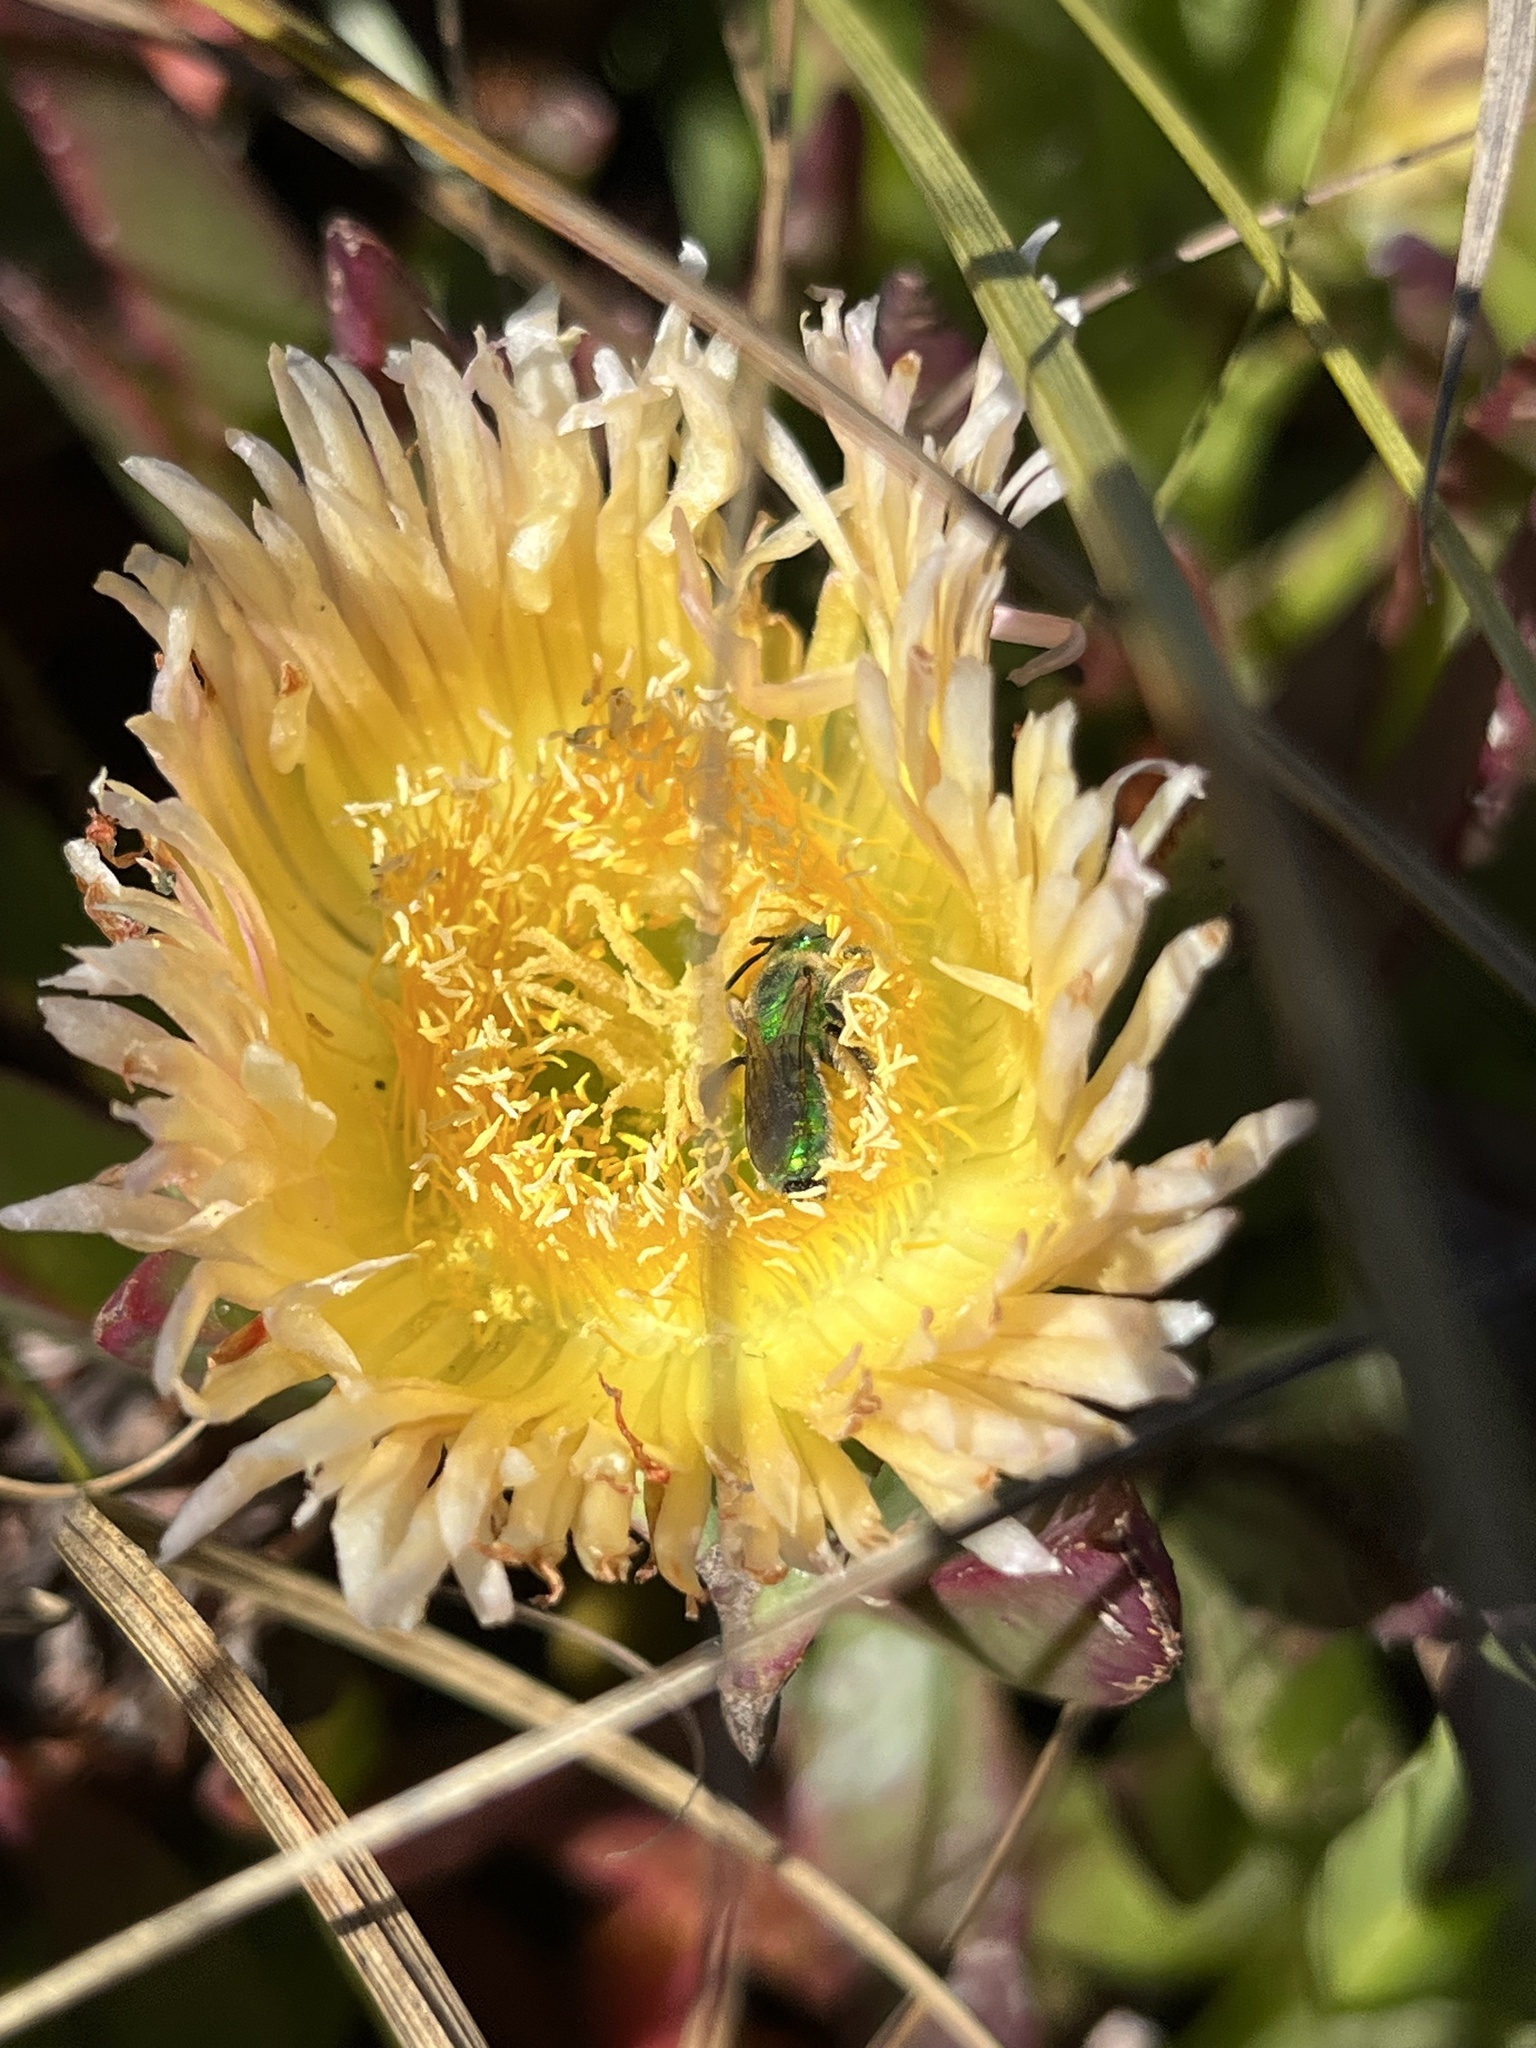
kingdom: Animalia
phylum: Arthropoda
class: Insecta
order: Hymenoptera
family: Halictidae
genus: Agapostemon
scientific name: Agapostemon texanus
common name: Texas striped sweat bee
